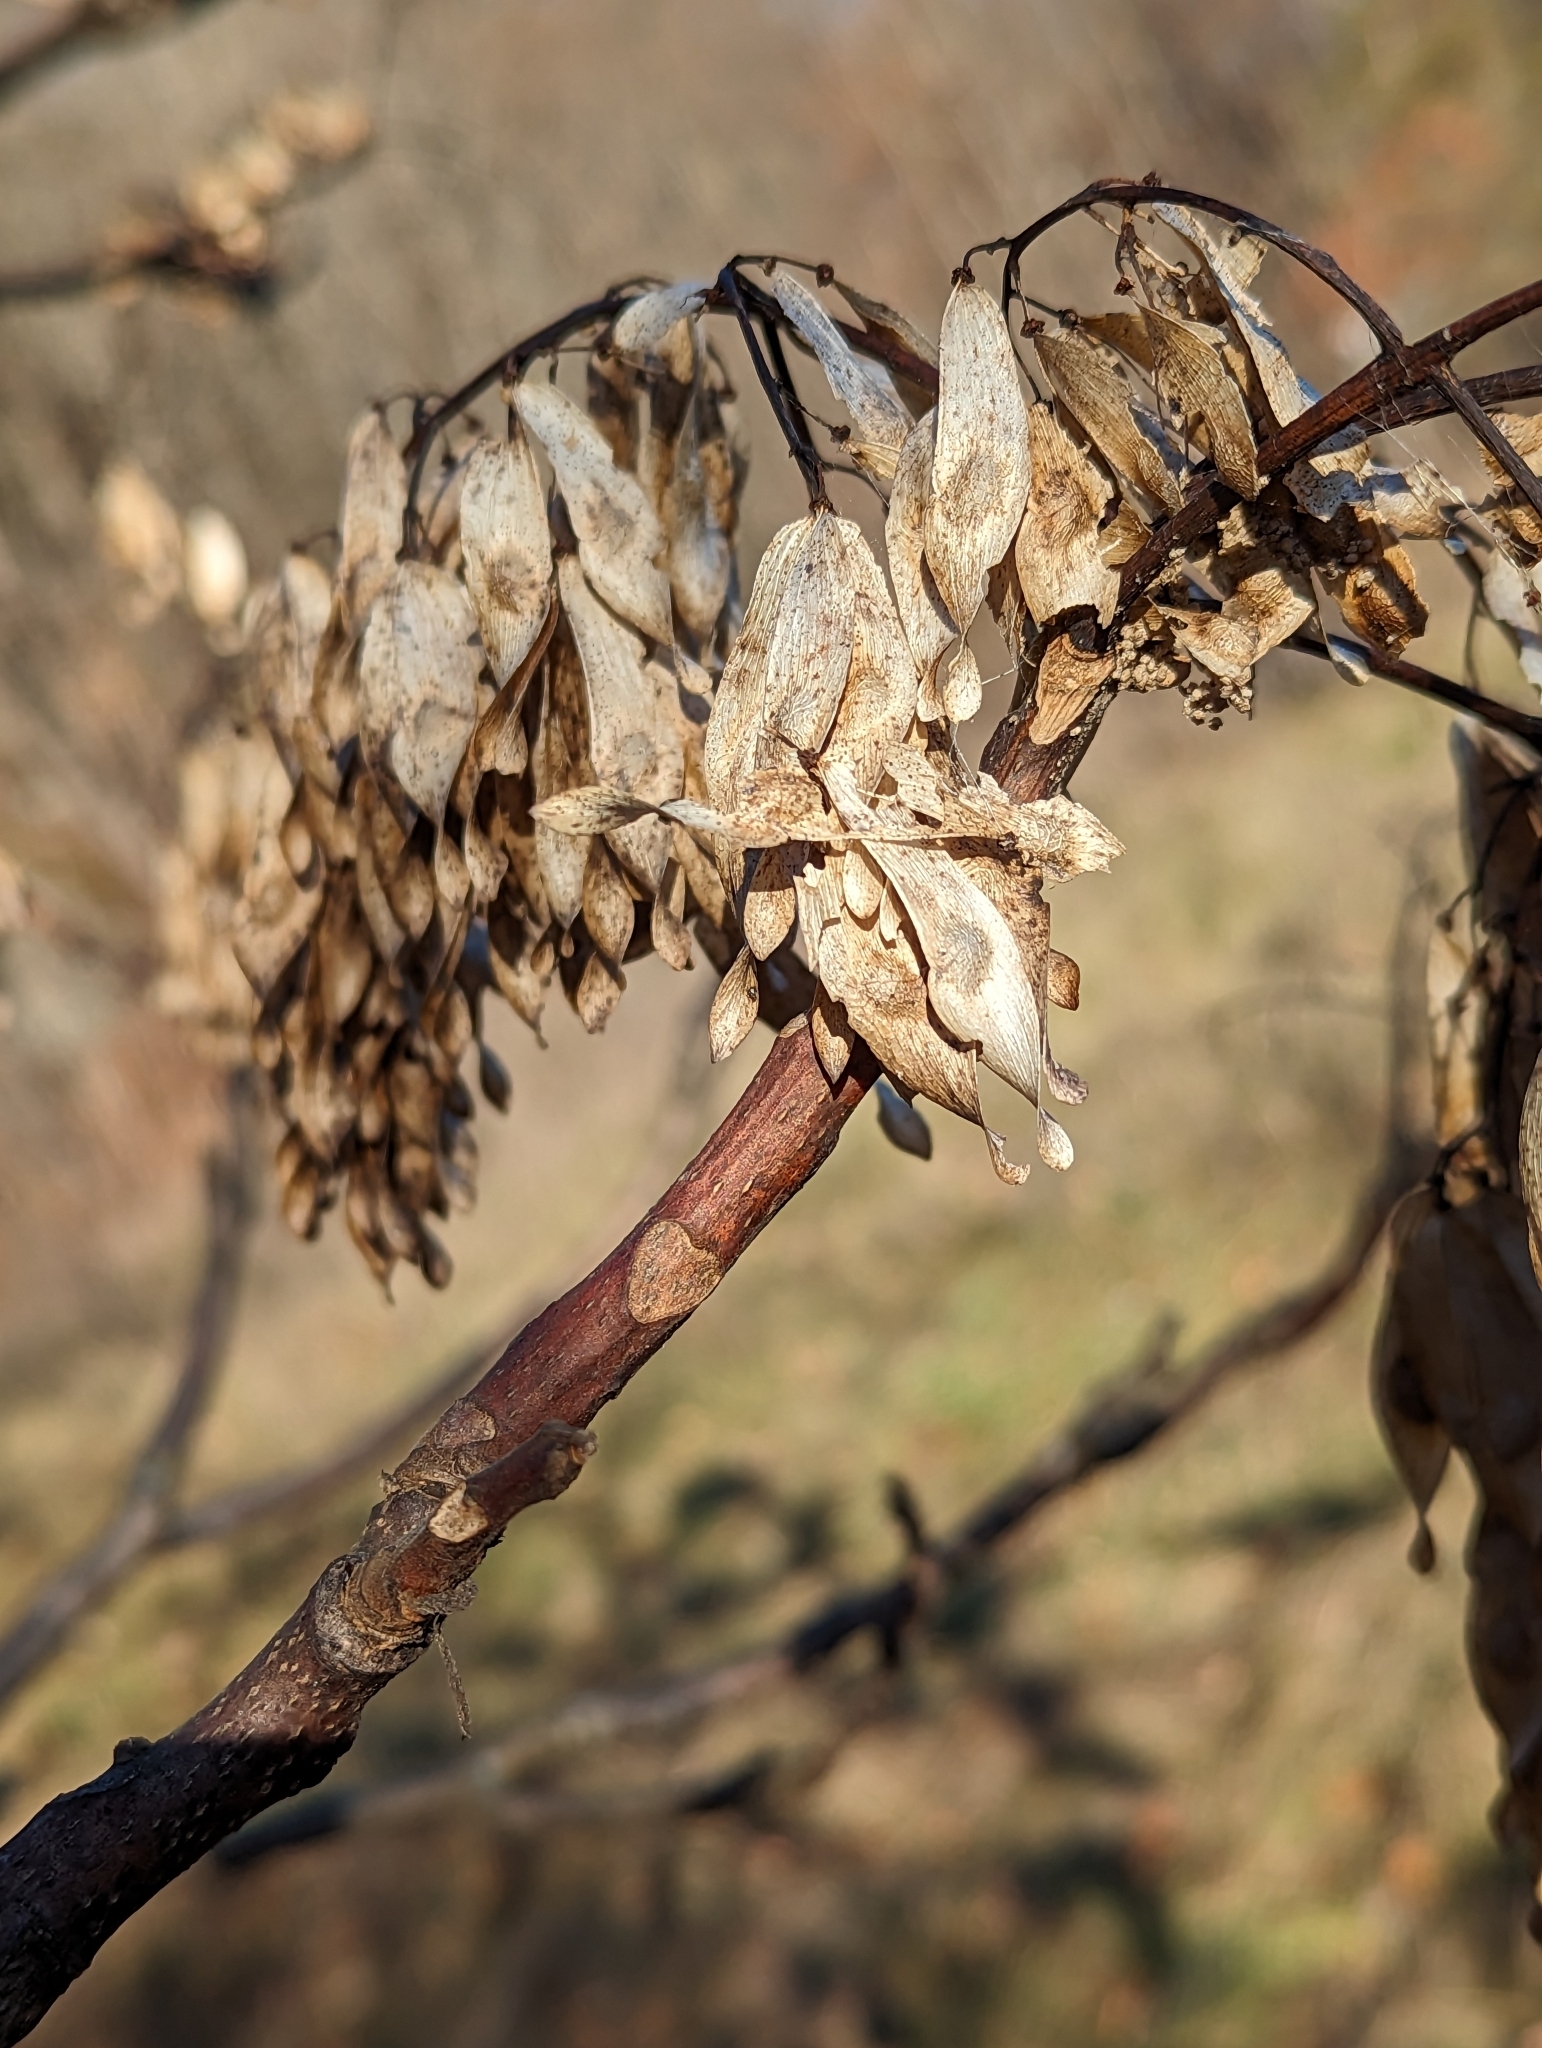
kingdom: Plantae
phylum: Tracheophyta
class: Magnoliopsida
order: Sapindales
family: Simaroubaceae
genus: Ailanthus
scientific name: Ailanthus altissima
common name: Tree-of-heaven
